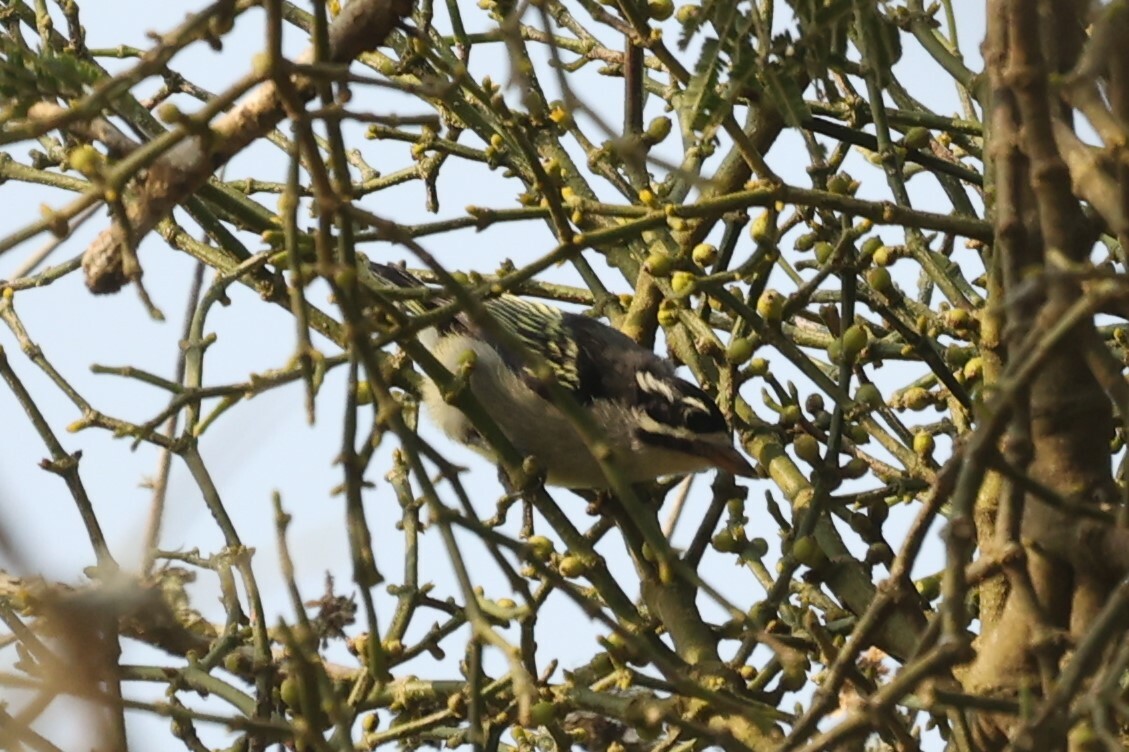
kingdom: Animalia
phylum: Chordata
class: Aves
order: Piciformes
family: Lybiidae
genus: Pogoniulus
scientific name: Pogoniulus bilineatus
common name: Yellow-rumped tinkerbird
